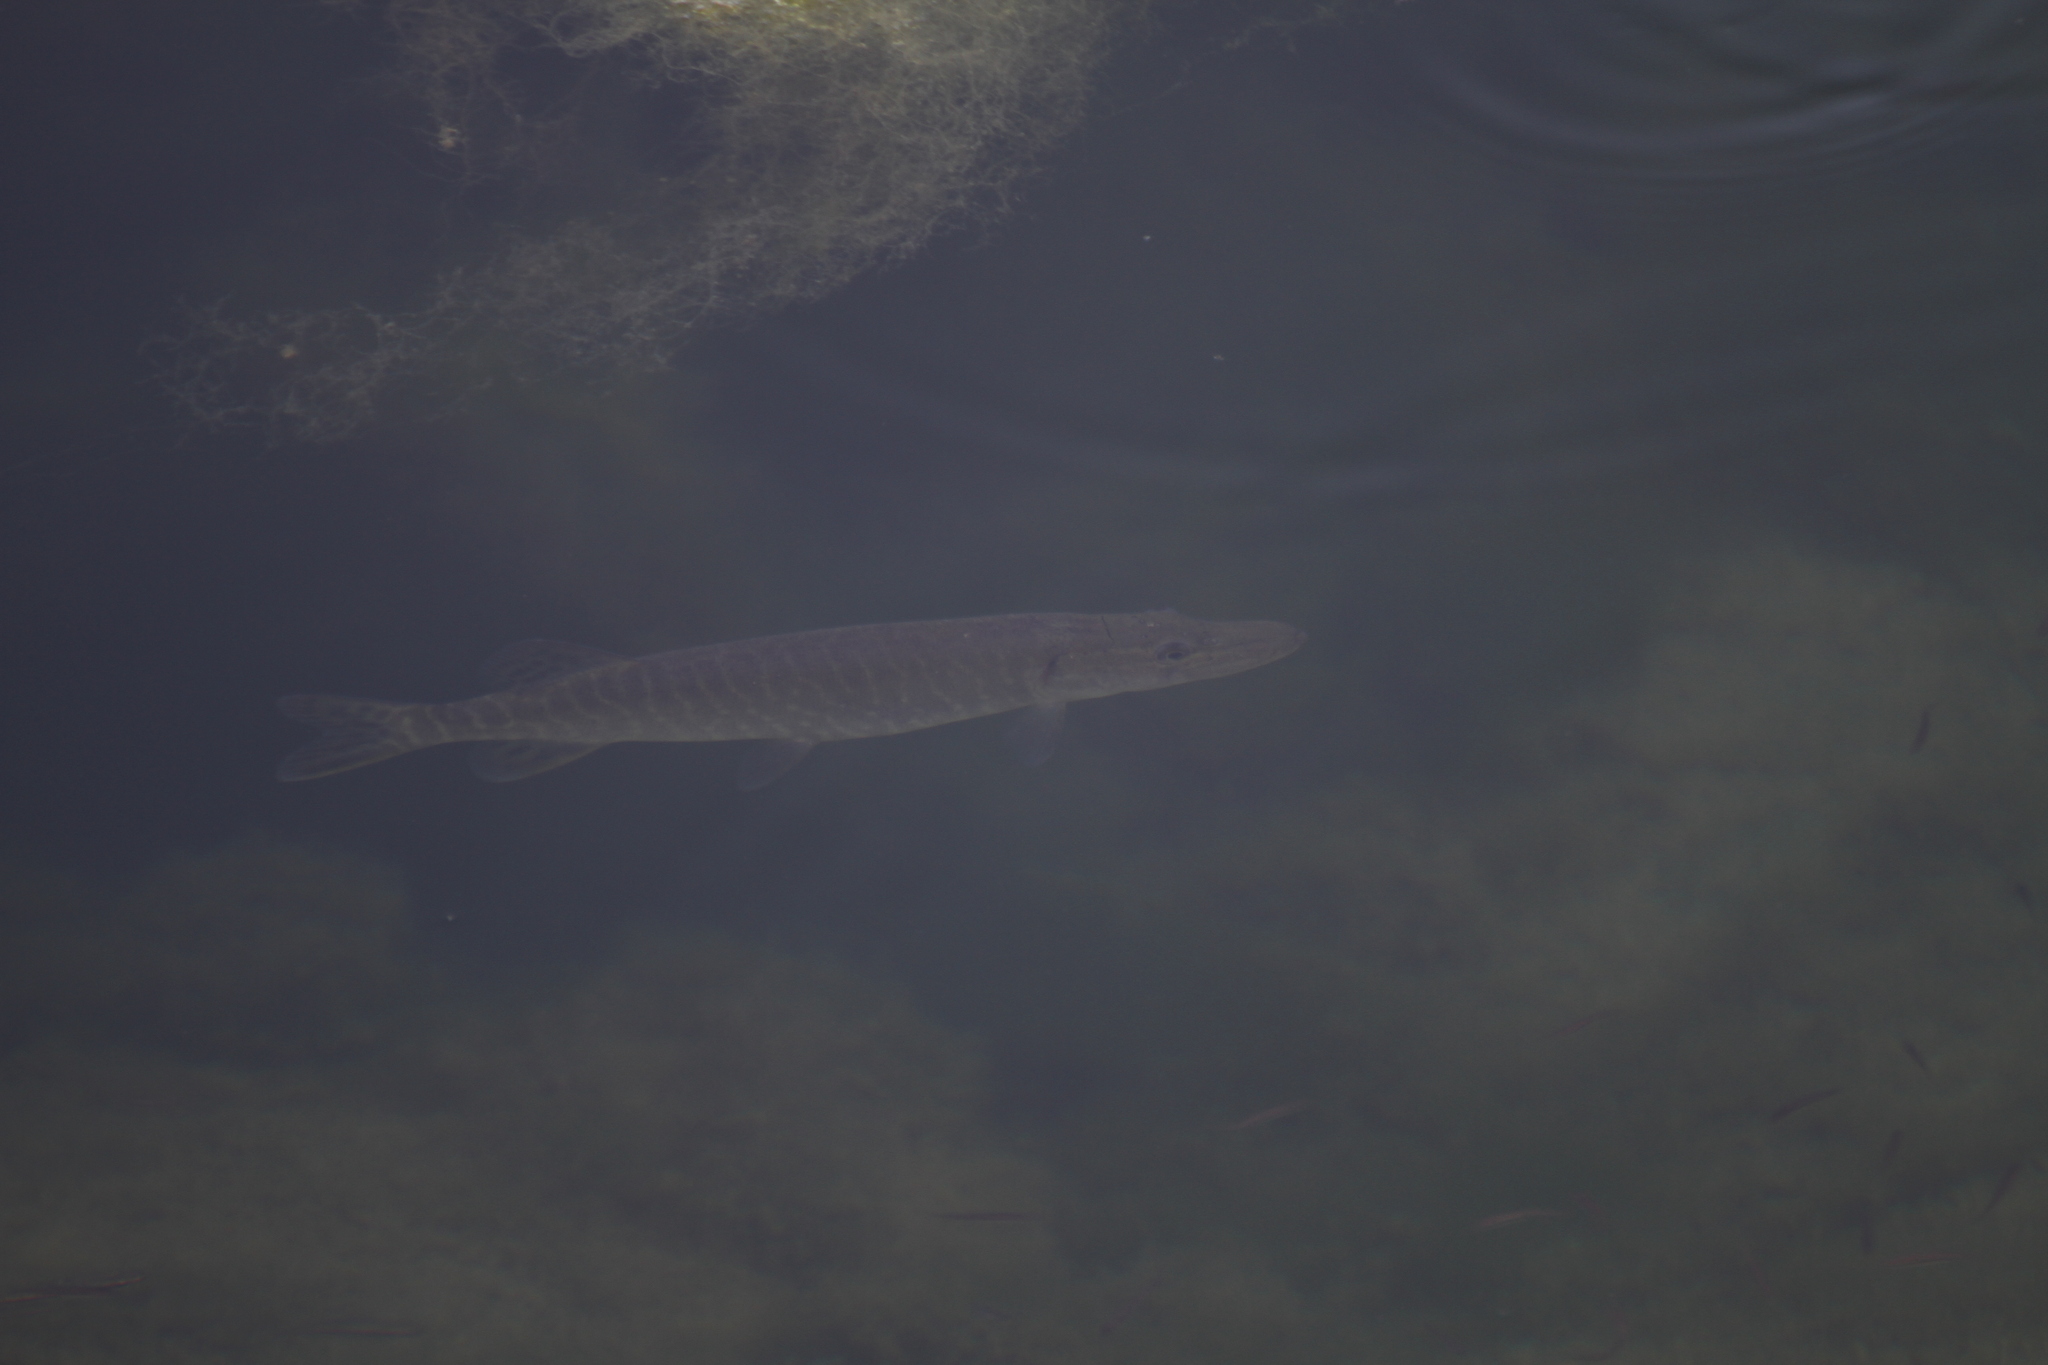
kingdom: Animalia
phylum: Chordata
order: Esociformes
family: Esocidae
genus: Esox
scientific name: Esox lucius
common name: Northern pike
